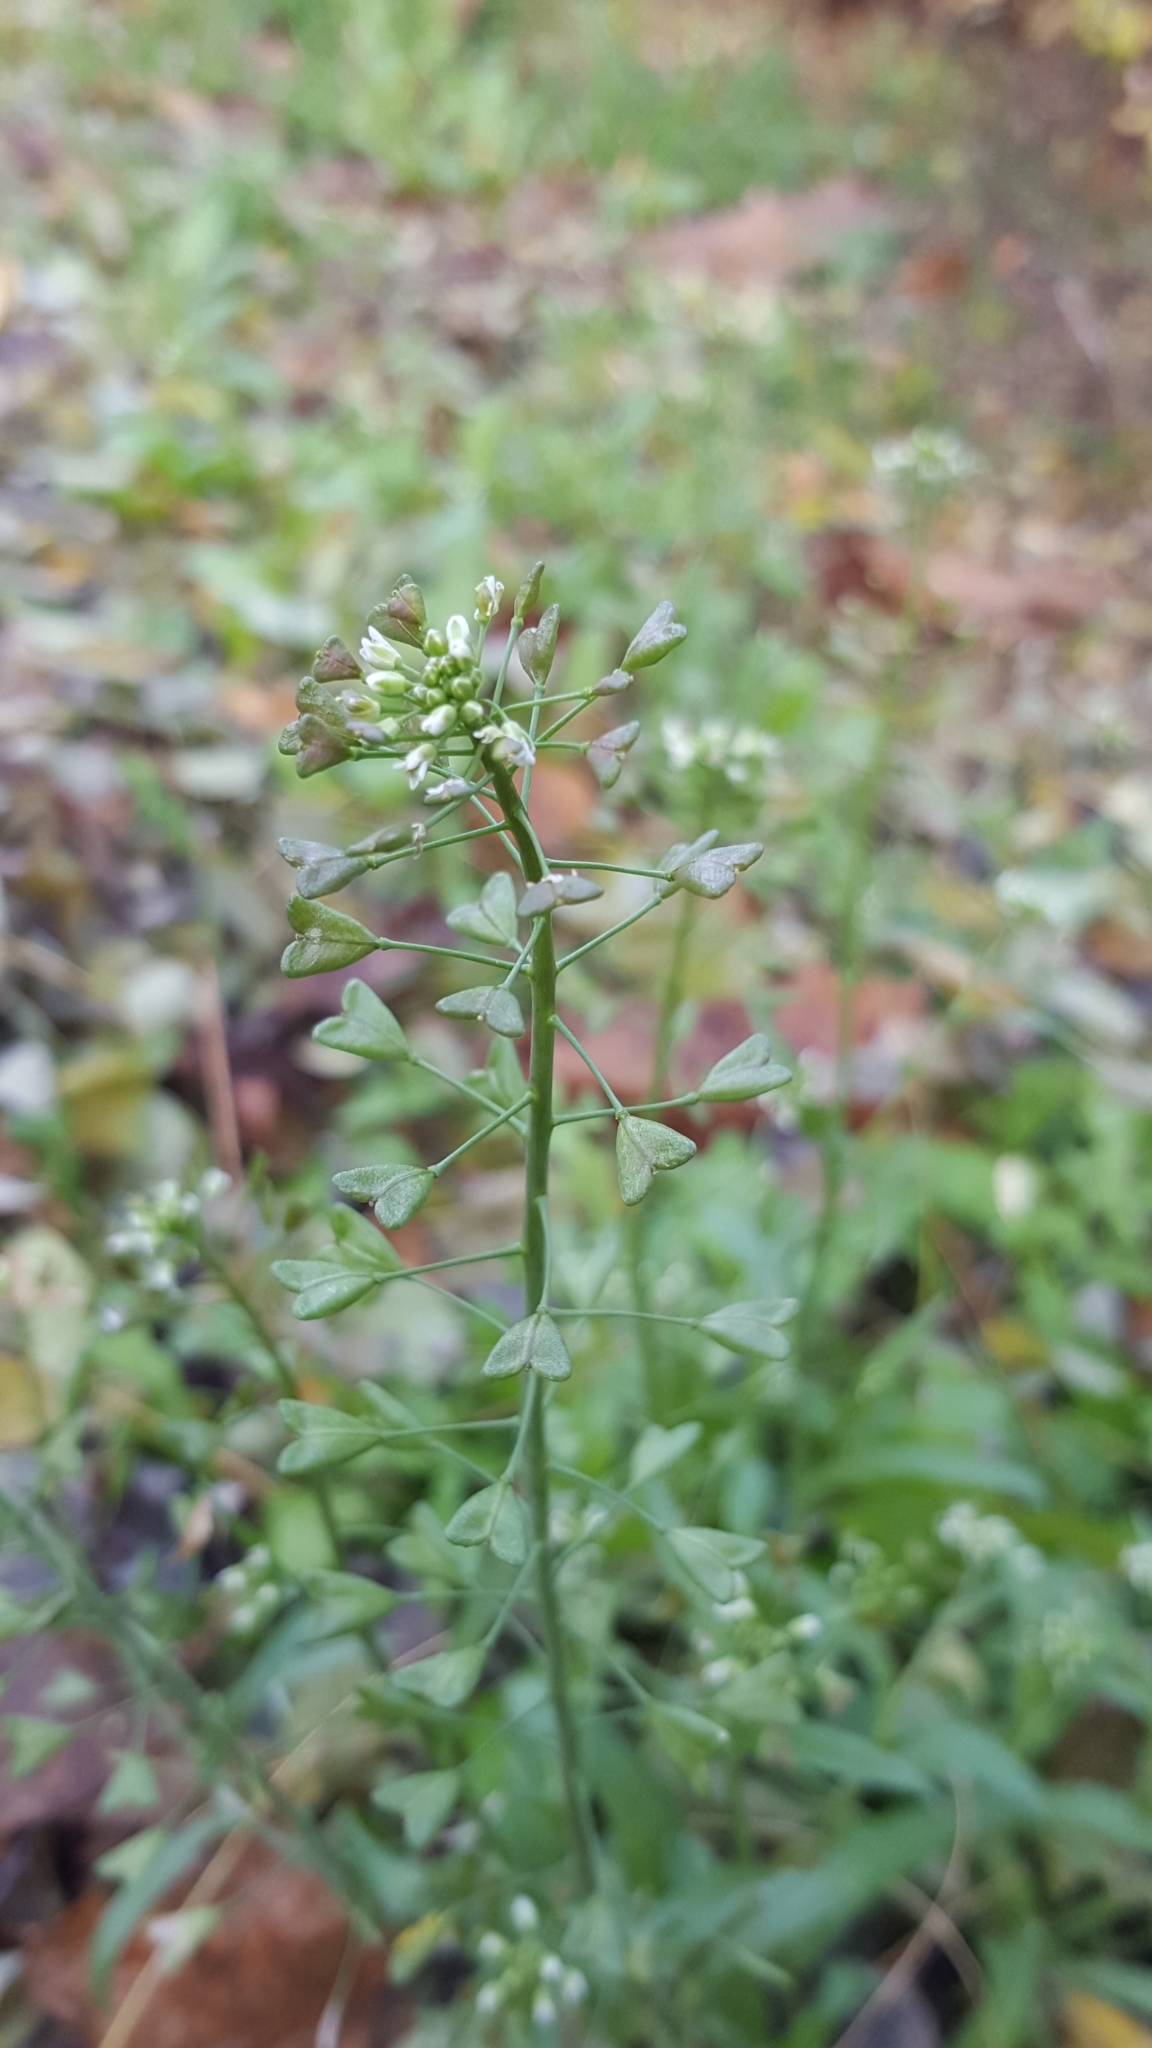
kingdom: Plantae
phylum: Tracheophyta
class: Magnoliopsida
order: Brassicales
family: Brassicaceae
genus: Capsella
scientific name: Capsella bursa-pastoris
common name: Shepherd's purse
